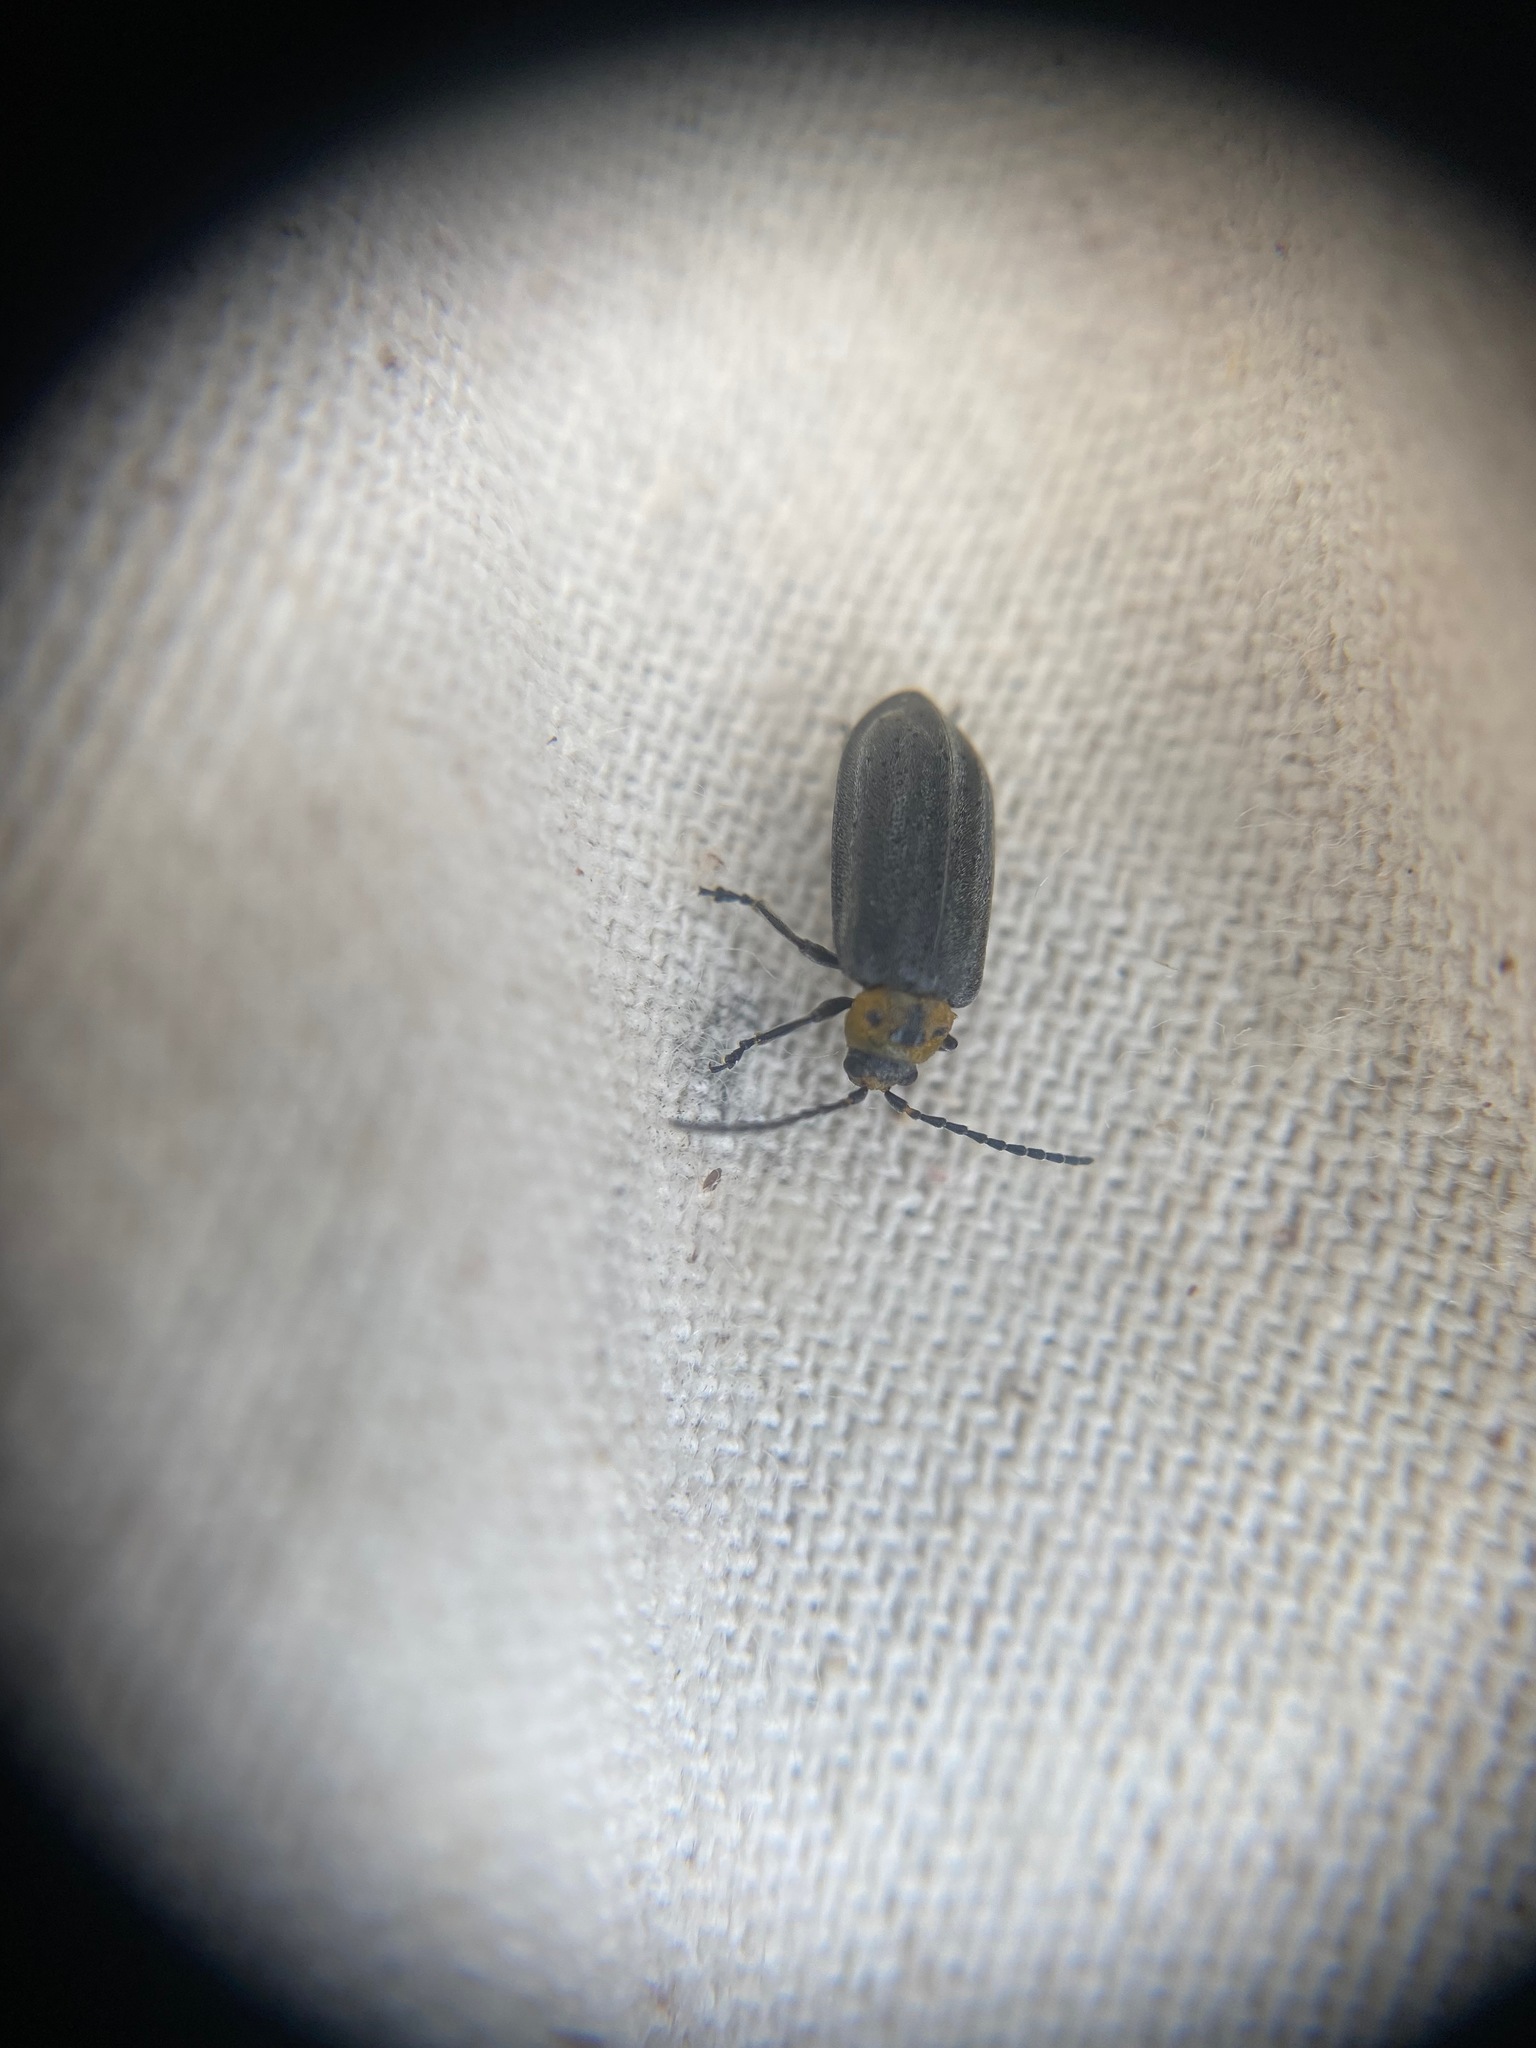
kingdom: Animalia
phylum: Arthropoda
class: Insecta
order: Coleoptera
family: Chrysomelidae
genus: Tricholochmaea
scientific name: Tricholochmaea punctipennis
